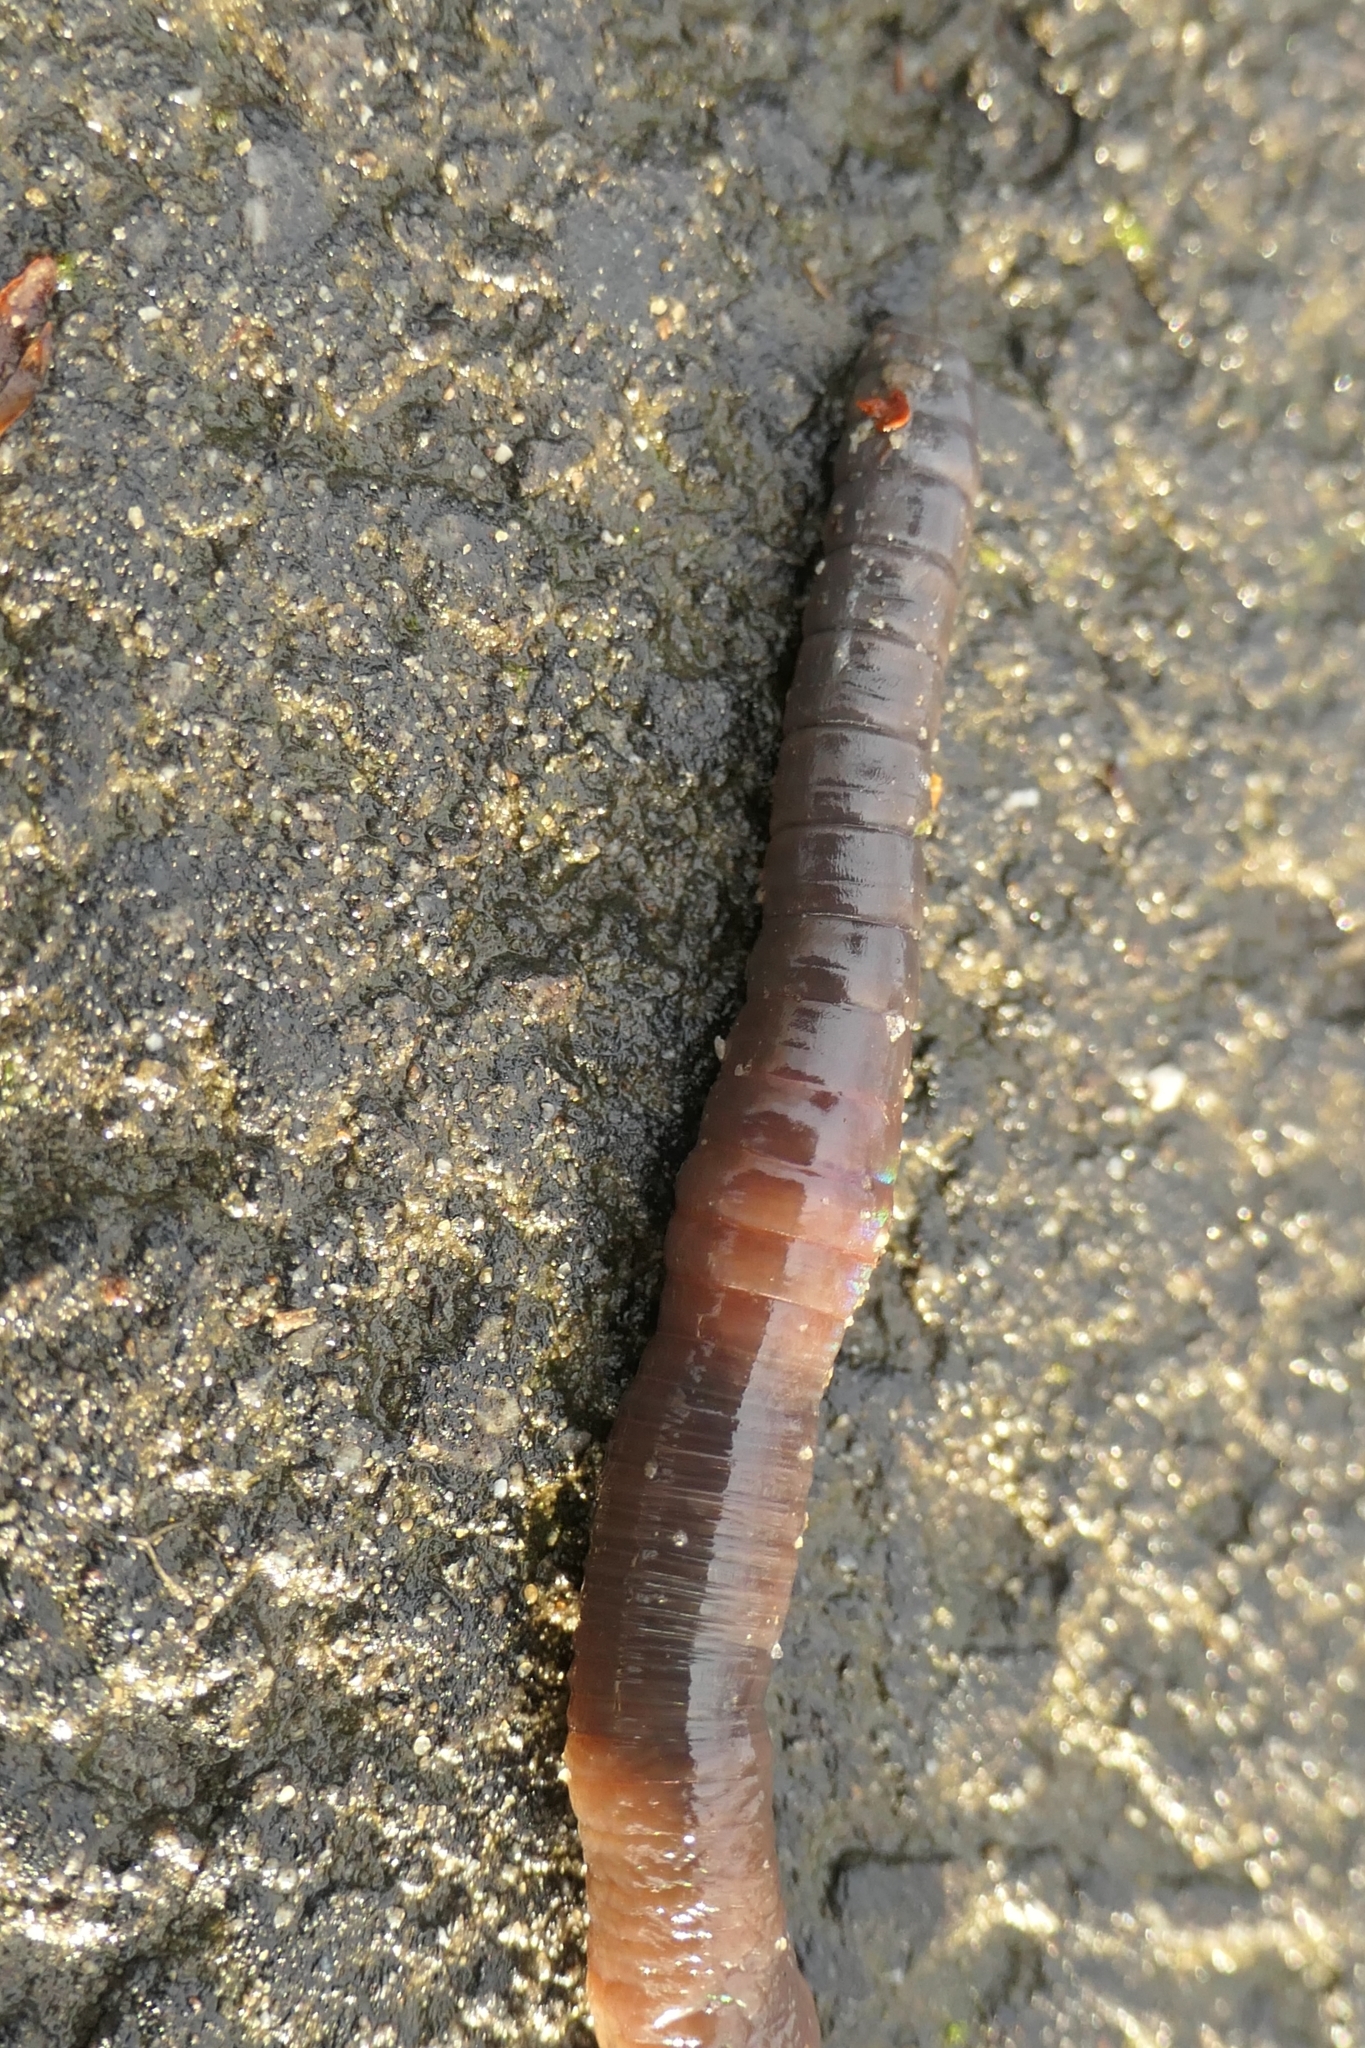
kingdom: Animalia
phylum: Annelida
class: Clitellata
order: Crassiclitellata
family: Lumbricidae
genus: Lumbricus
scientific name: Lumbricus terrestris
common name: Common earthworm
